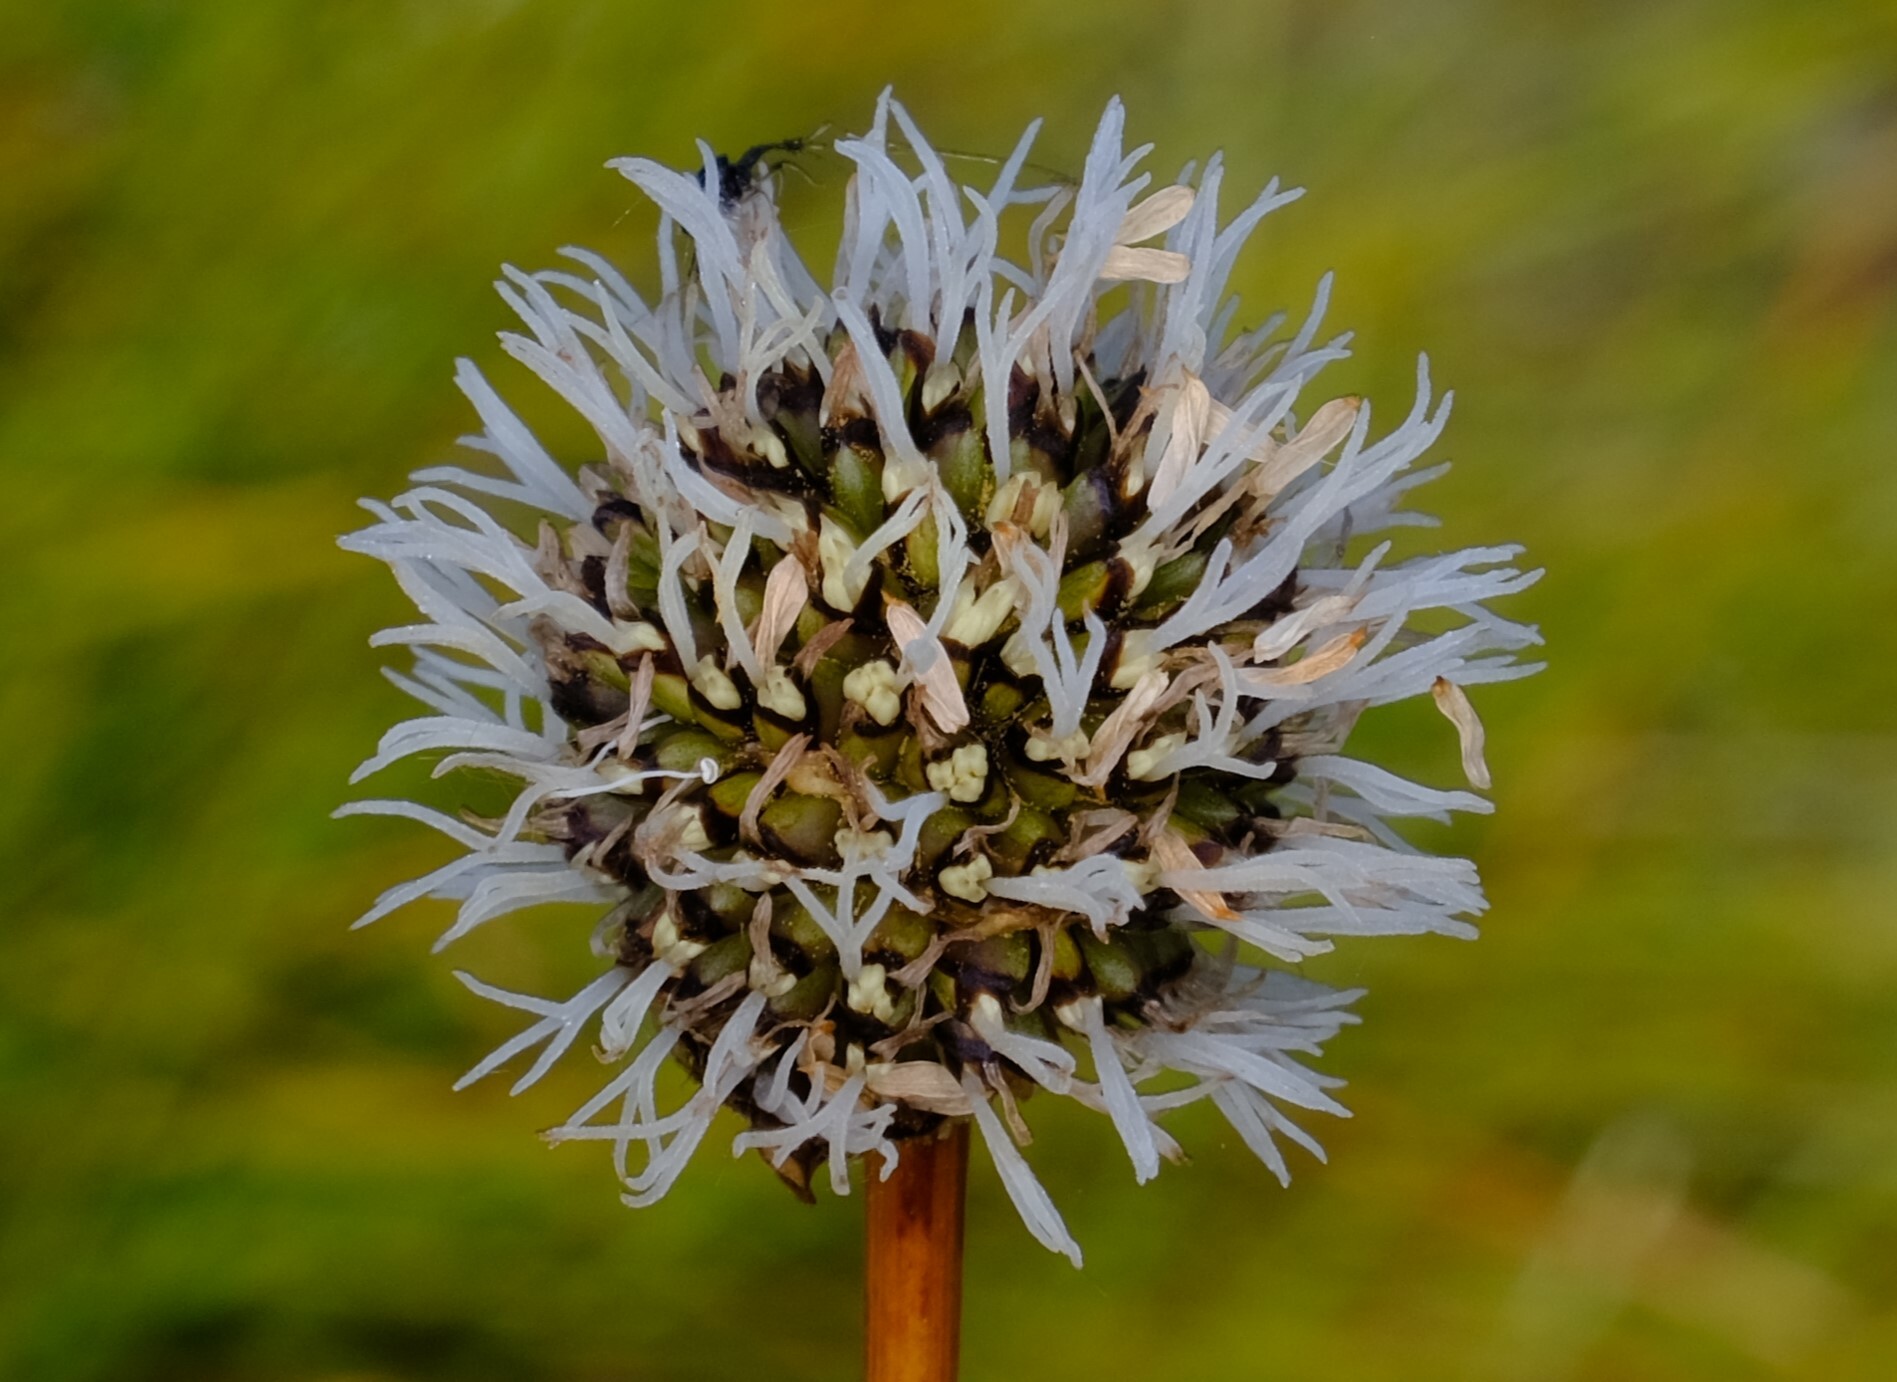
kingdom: Plantae
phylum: Tracheophyta
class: Liliopsida
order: Poales
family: Cyperaceae
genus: Gymnoschoenus
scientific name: Gymnoschoenus sphaerocephalus
